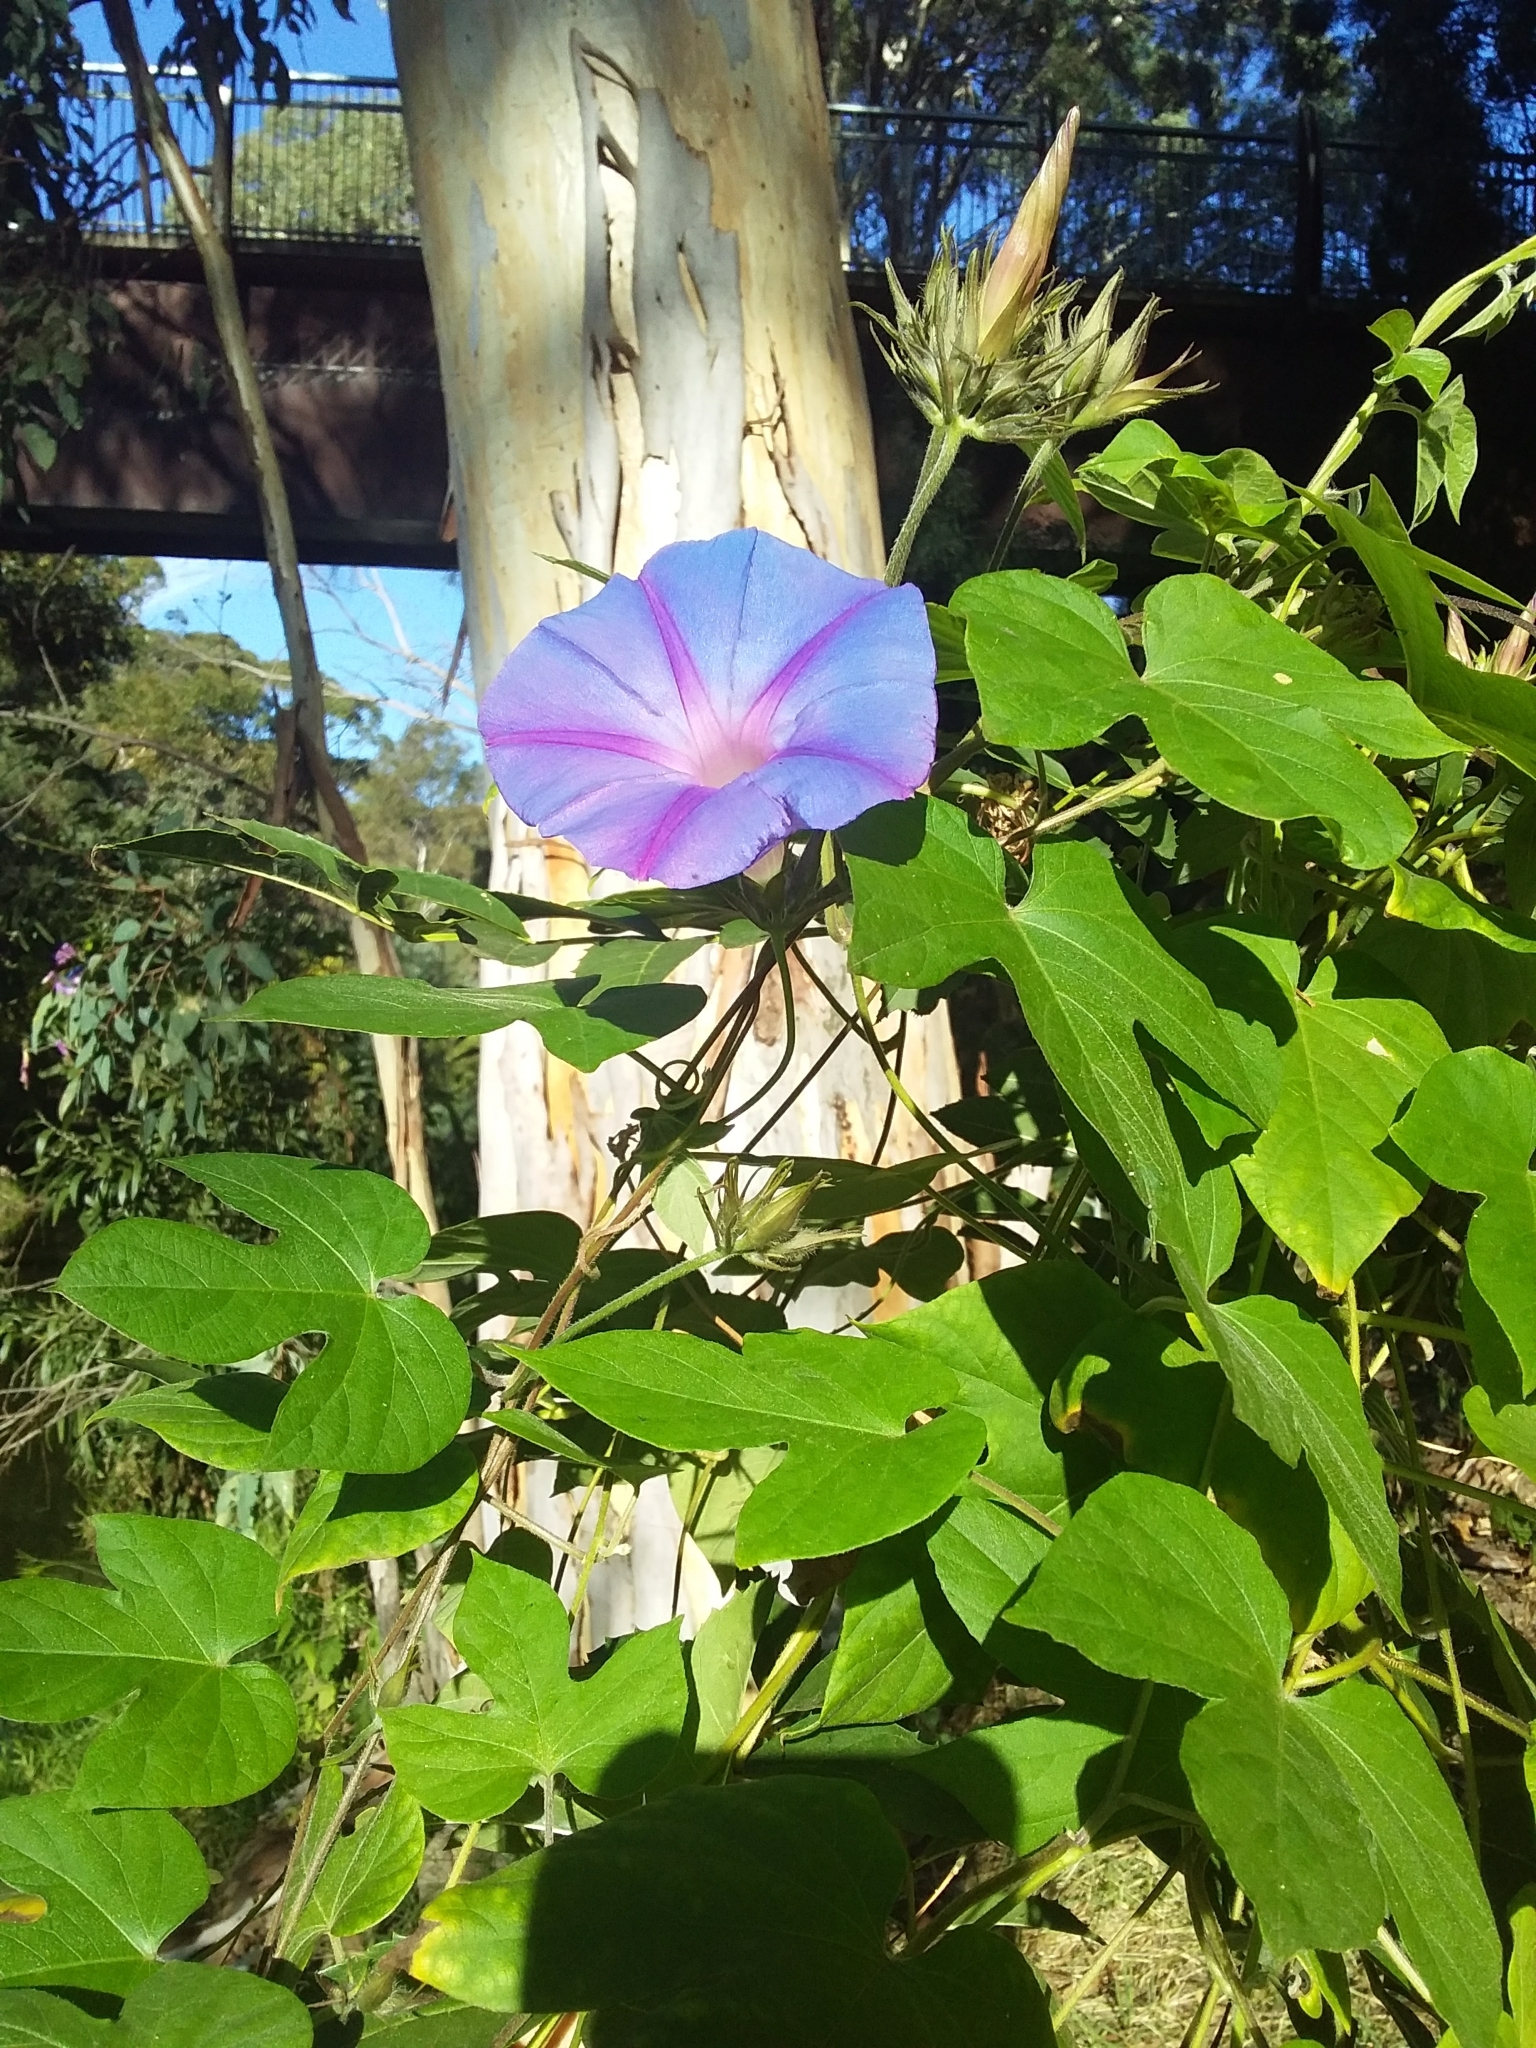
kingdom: Plantae
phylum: Tracheophyta
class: Magnoliopsida
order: Solanales
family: Convolvulaceae
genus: Ipomoea
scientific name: Ipomoea indica
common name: Blue dawnflower
